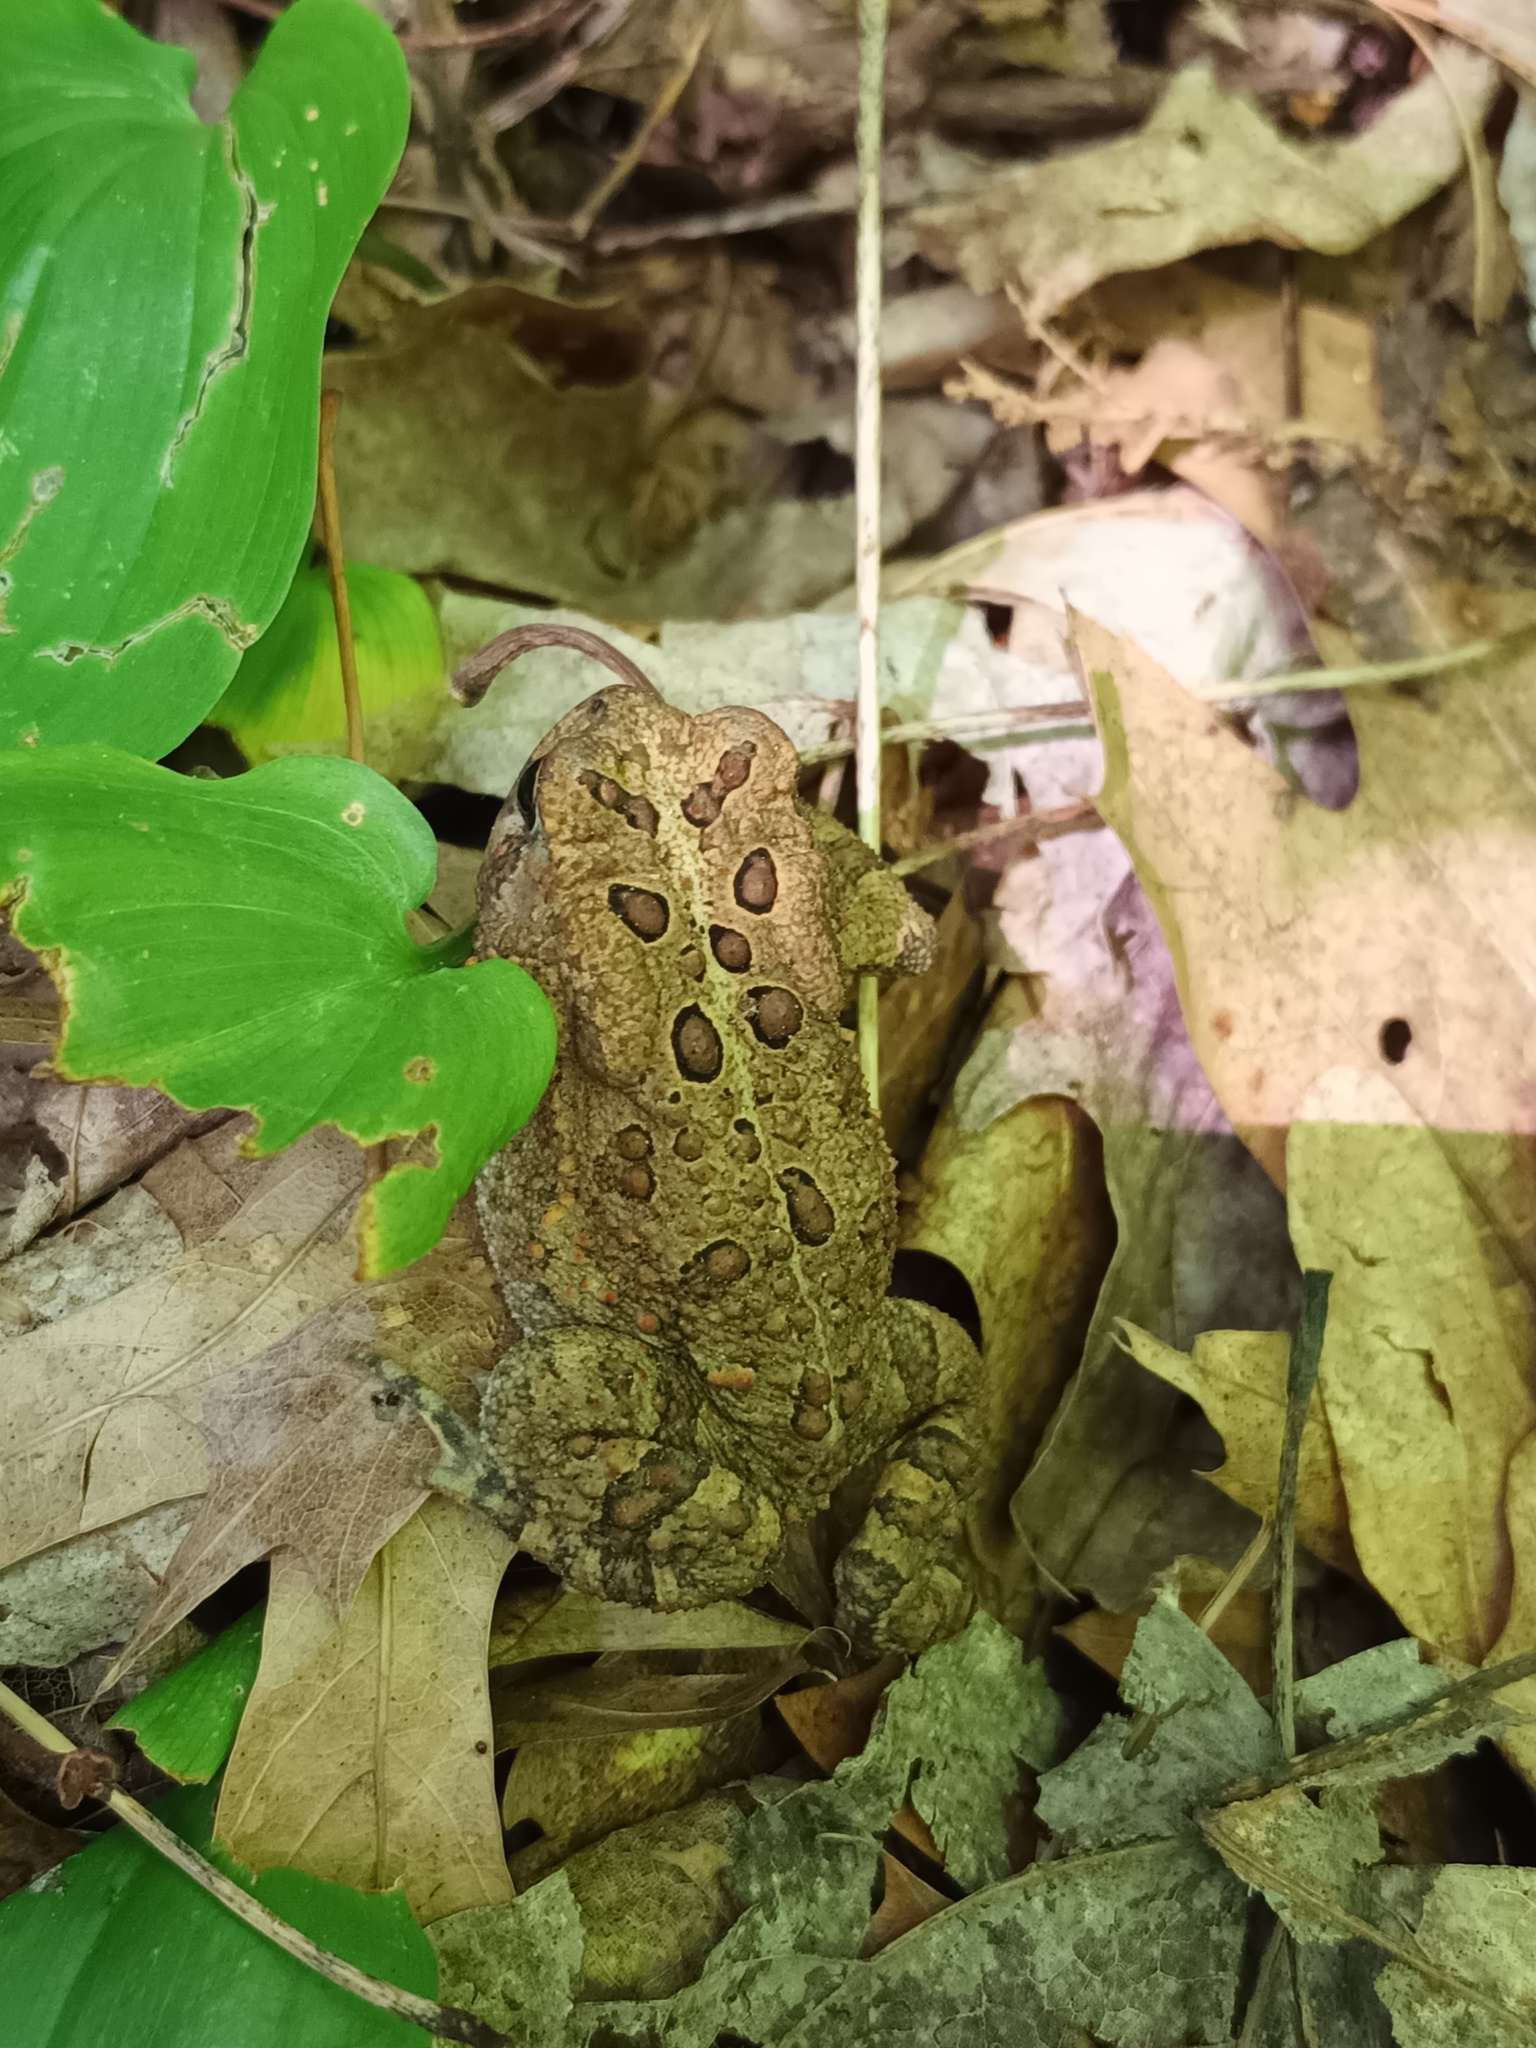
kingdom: Animalia
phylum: Chordata
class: Amphibia
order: Anura
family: Bufonidae
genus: Anaxyrus
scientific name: Anaxyrus americanus
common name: American toad
